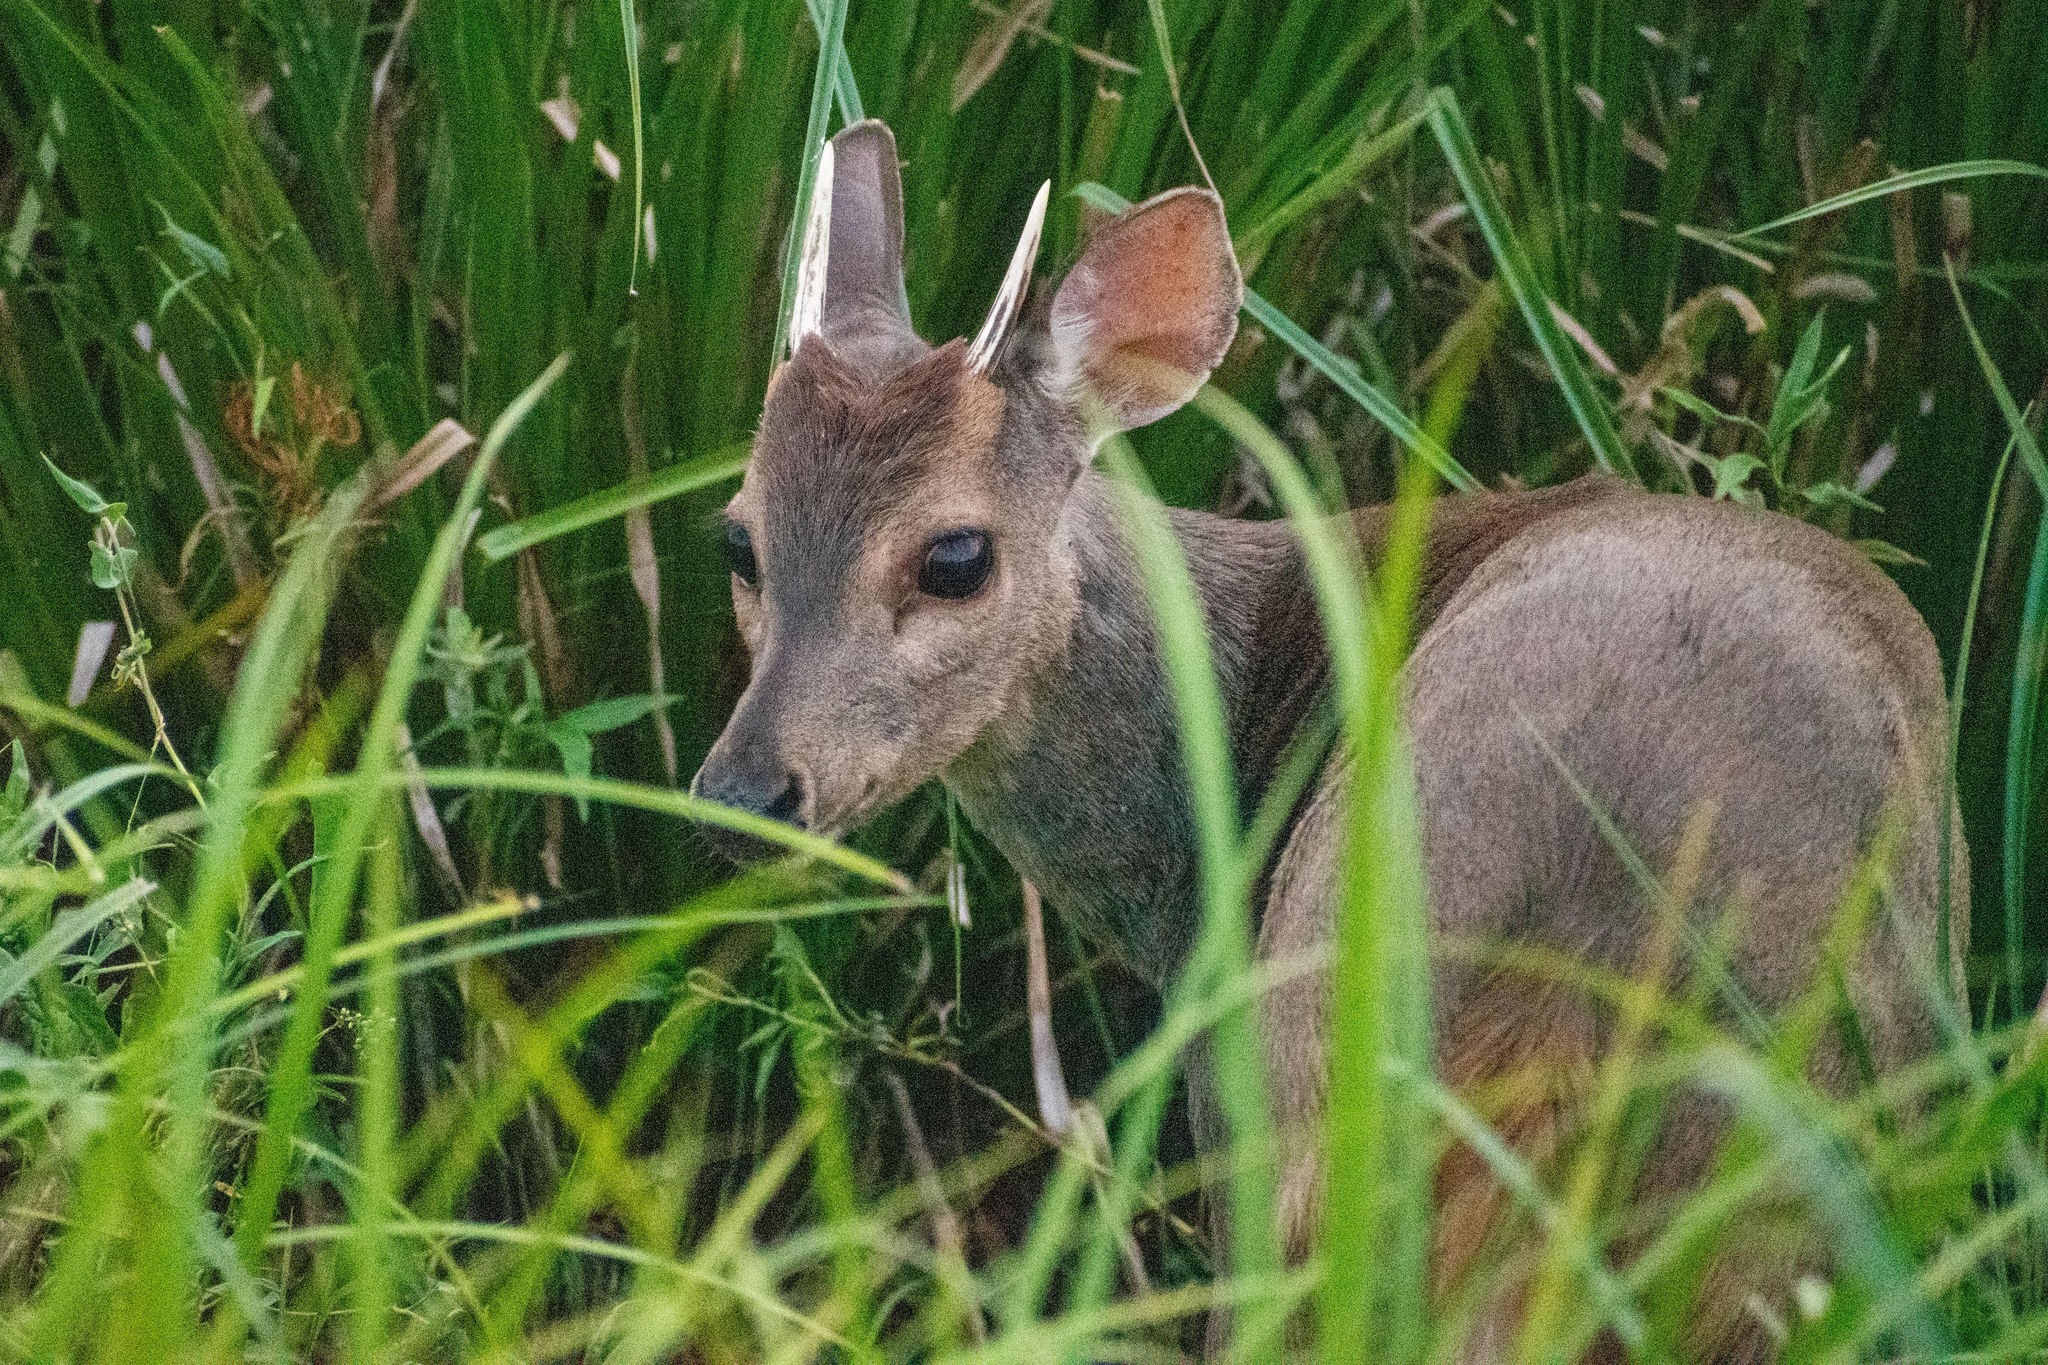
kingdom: Animalia
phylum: Chordata
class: Mammalia
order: Artiodactyla
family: Cervidae
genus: Mazama
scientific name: Mazama gouazoubira
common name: Gray brocket
